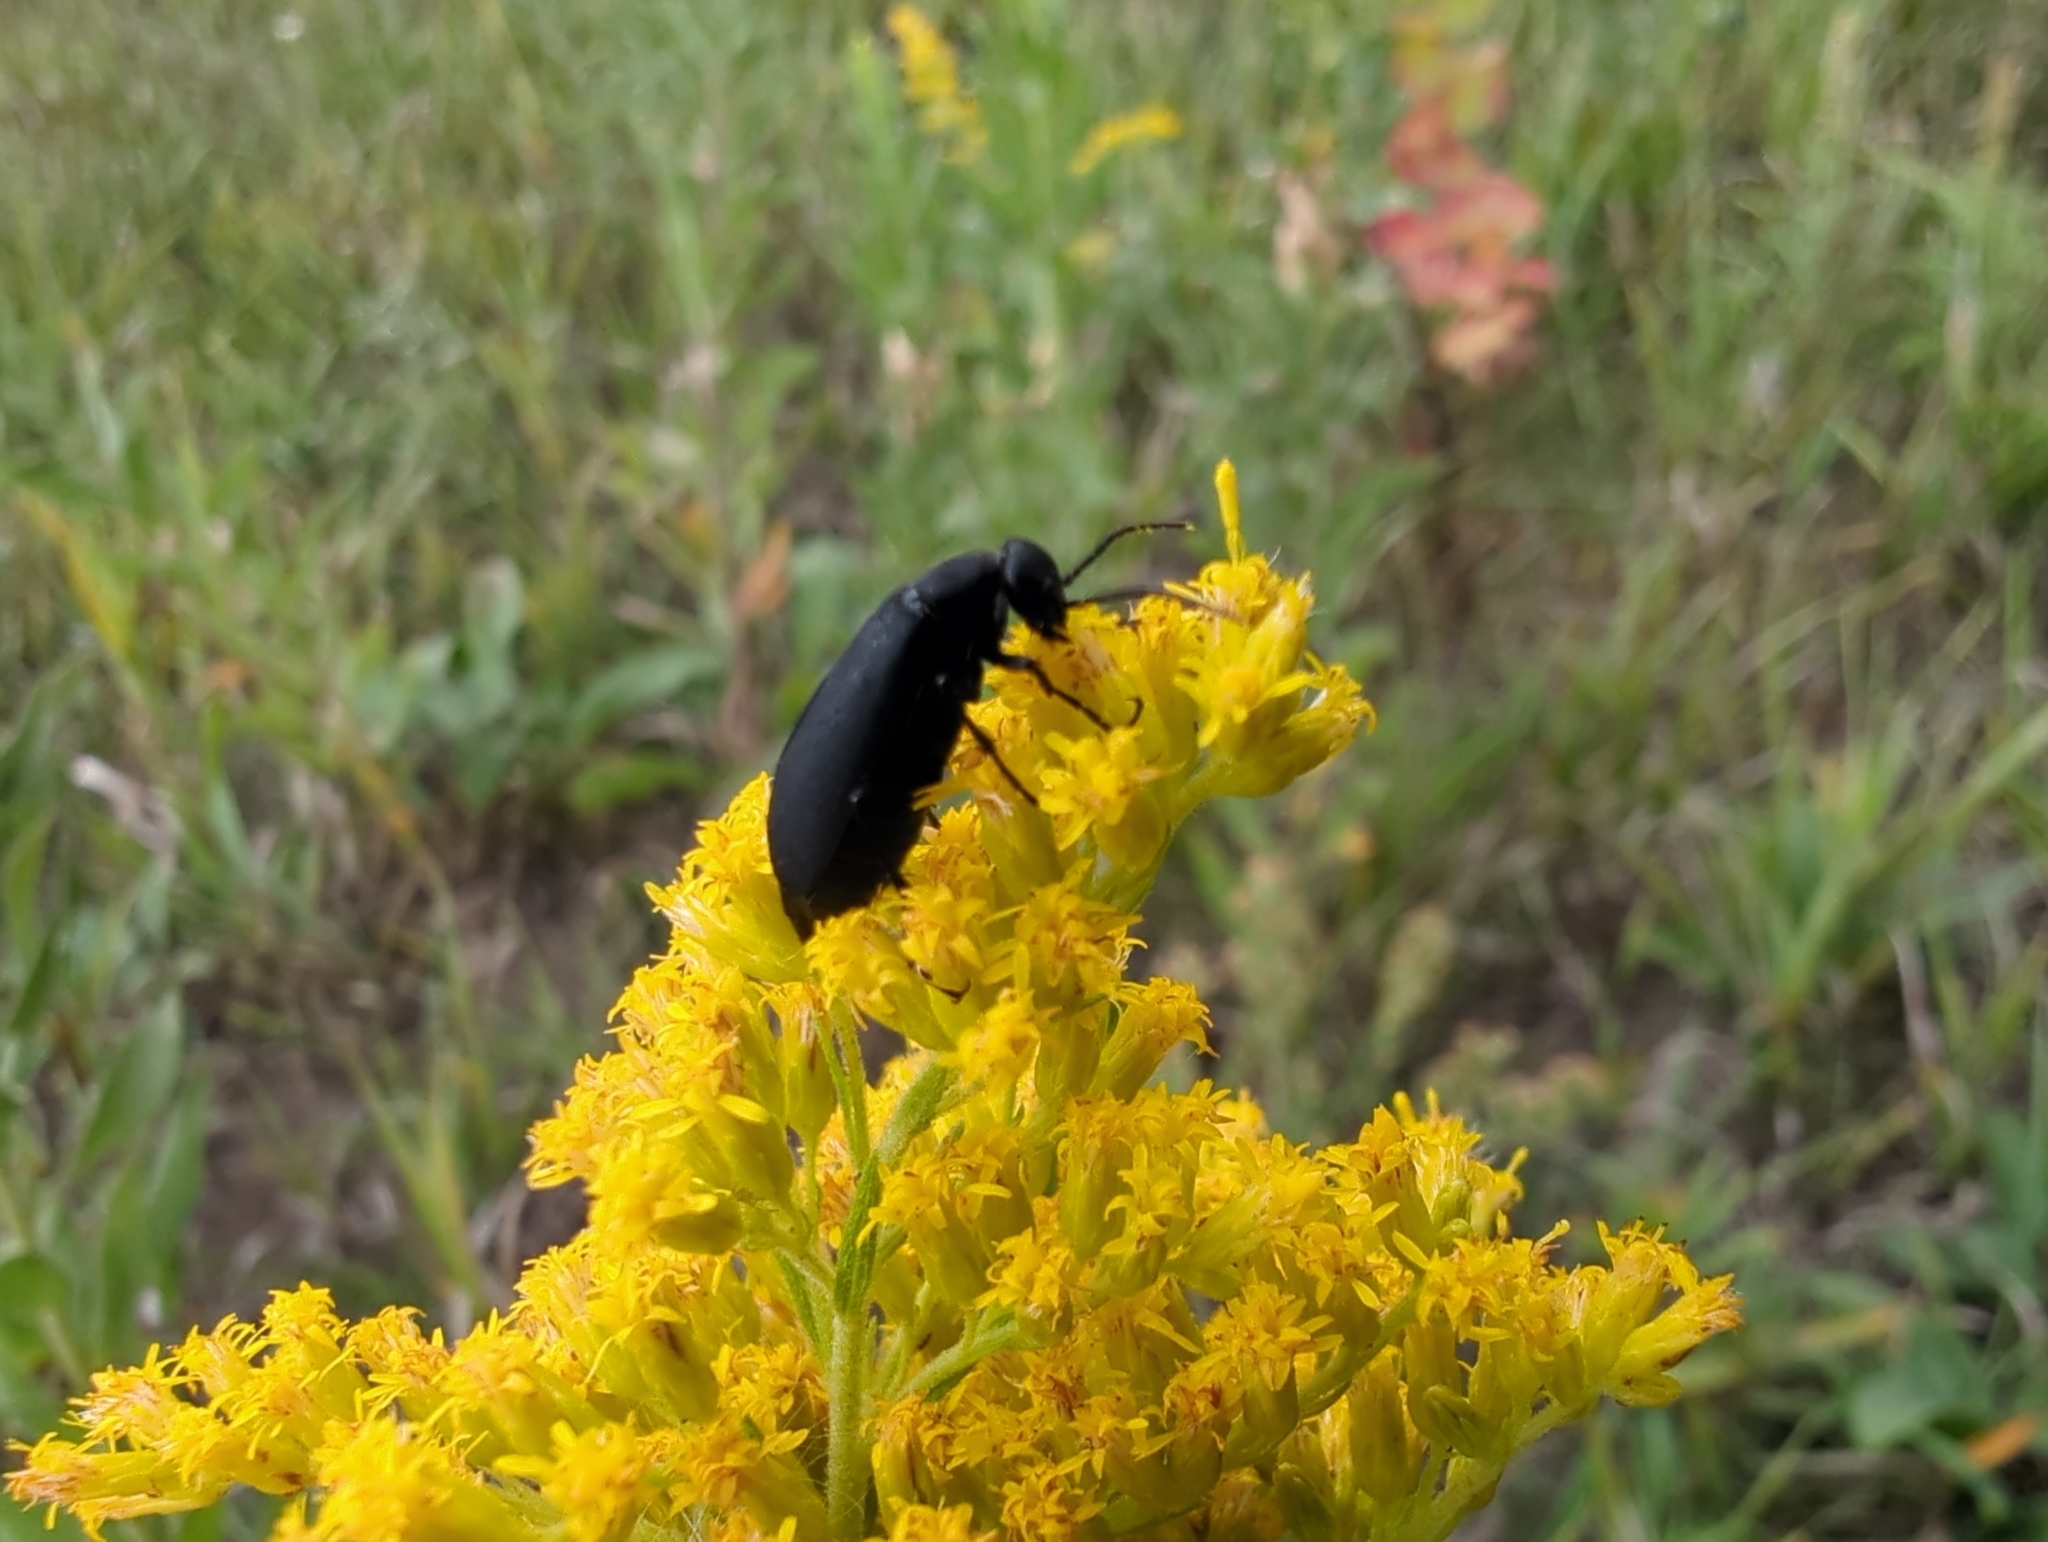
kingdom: Animalia
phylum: Arthropoda
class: Insecta
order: Coleoptera
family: Meloidae
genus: Epicauta
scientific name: Epicauta pensylvanica
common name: Black blister beetle
